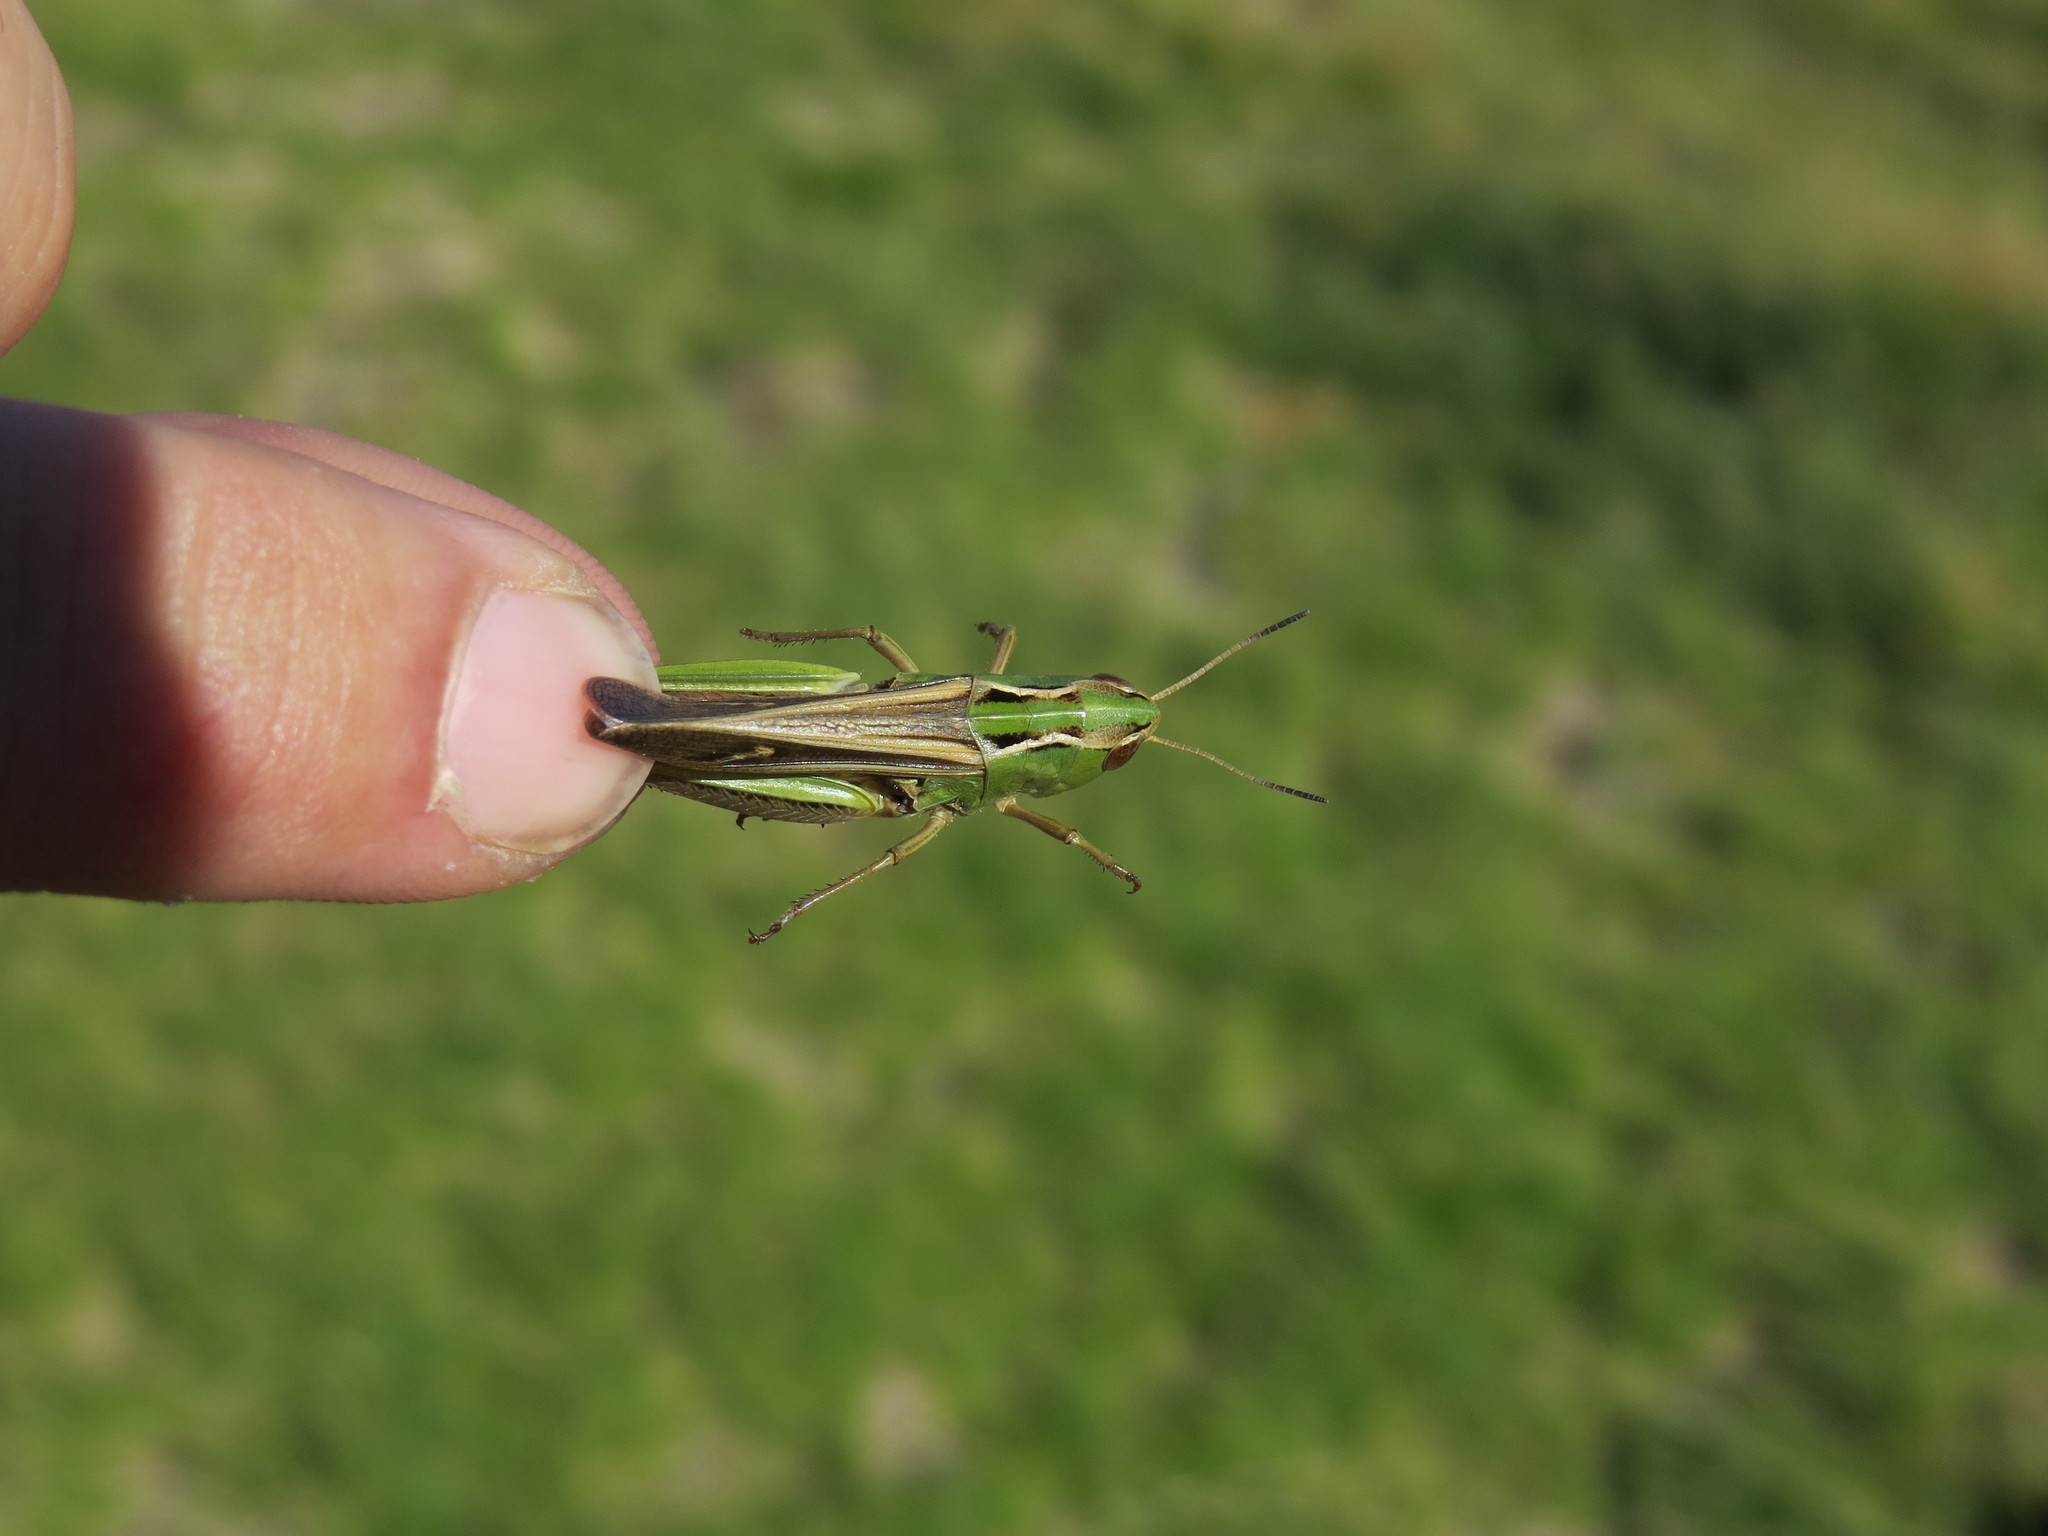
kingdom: Animalia
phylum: Arthropoda
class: Insecta
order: Orthoptera
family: Acrididae
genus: Stenobothrus
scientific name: Stenobothrus lineatus
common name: Stripe-winged grasshopper
